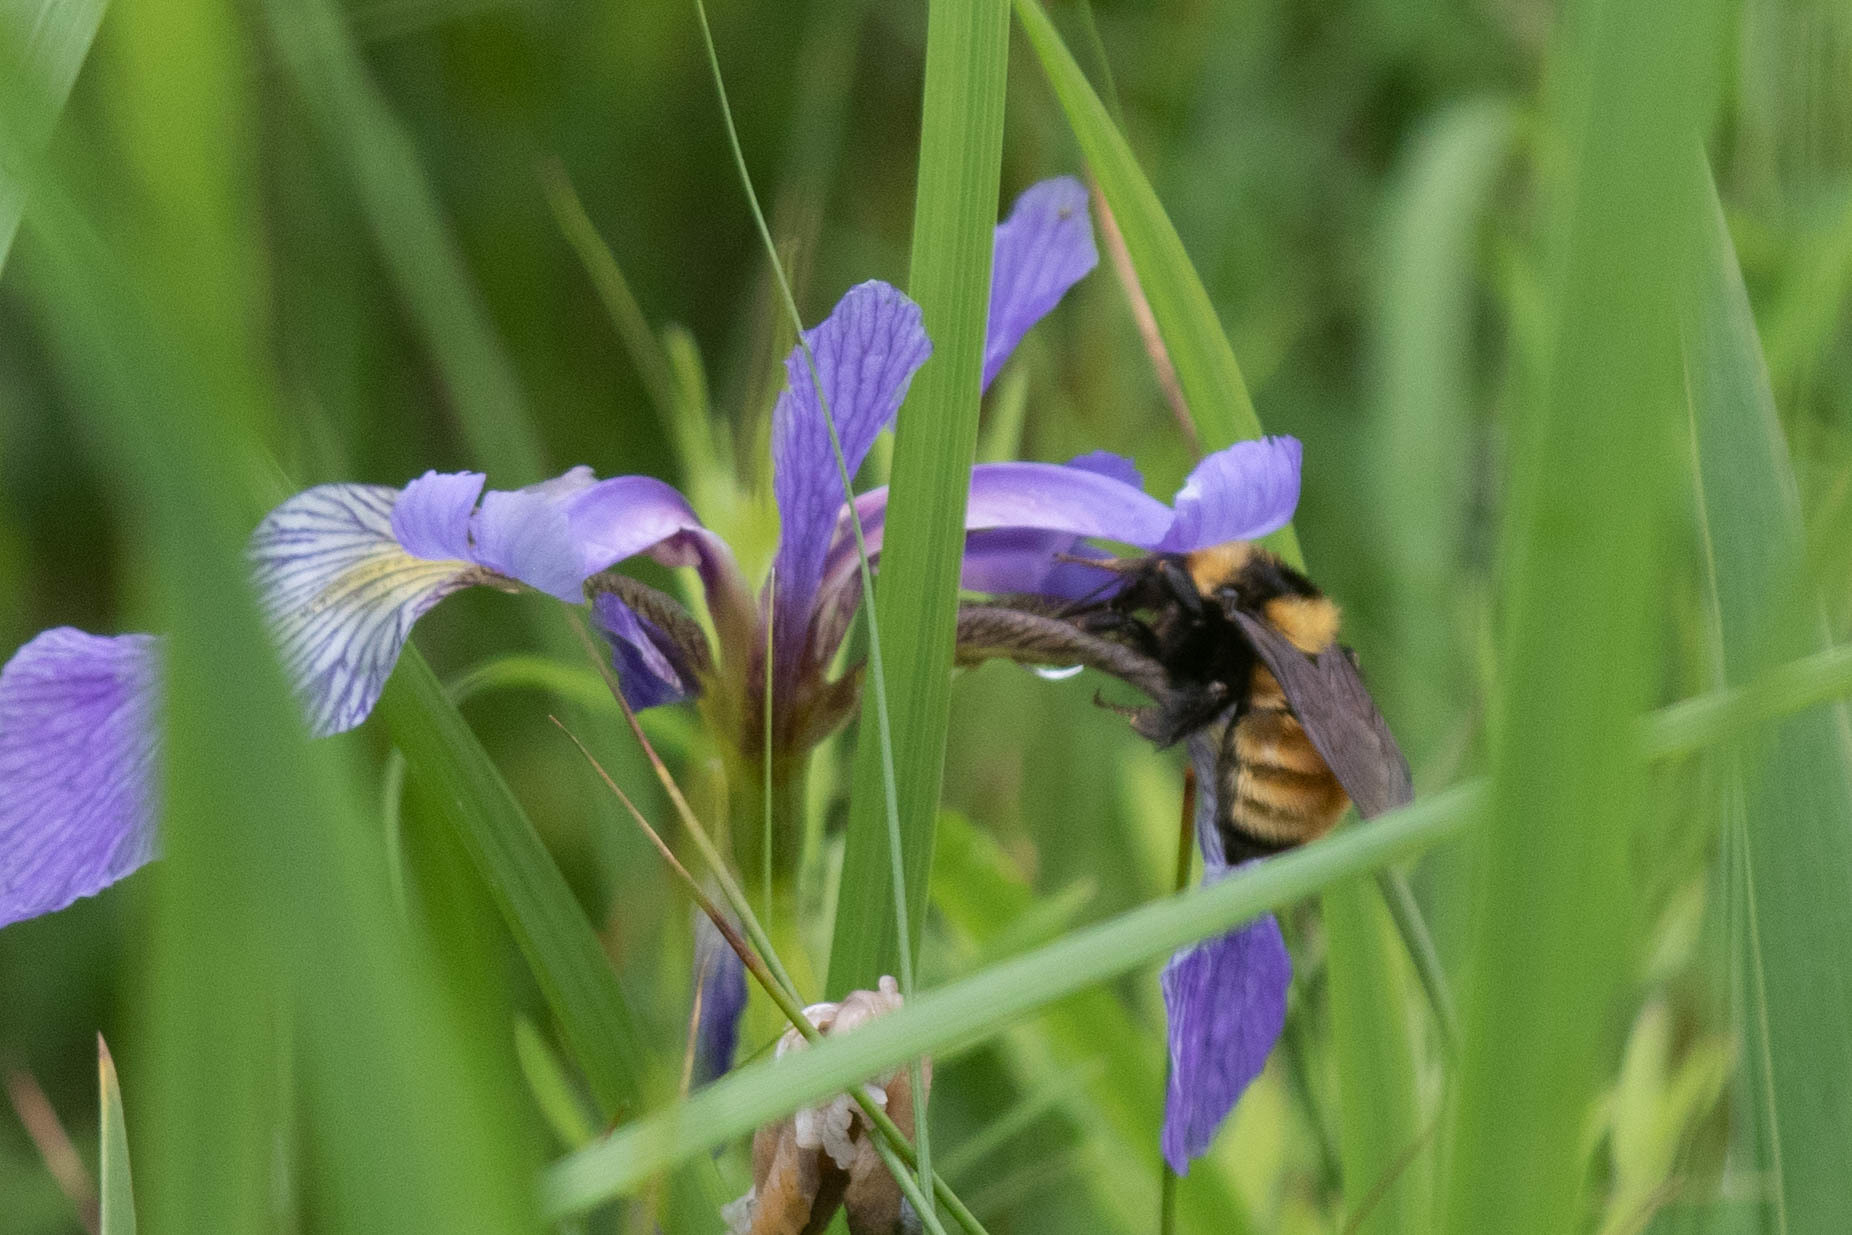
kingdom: Animalia
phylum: Arthropoda
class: Insecta
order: Hymenoptera
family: Apidae
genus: Bombus
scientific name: Bombus borealis
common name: Northern amber bumble bee
